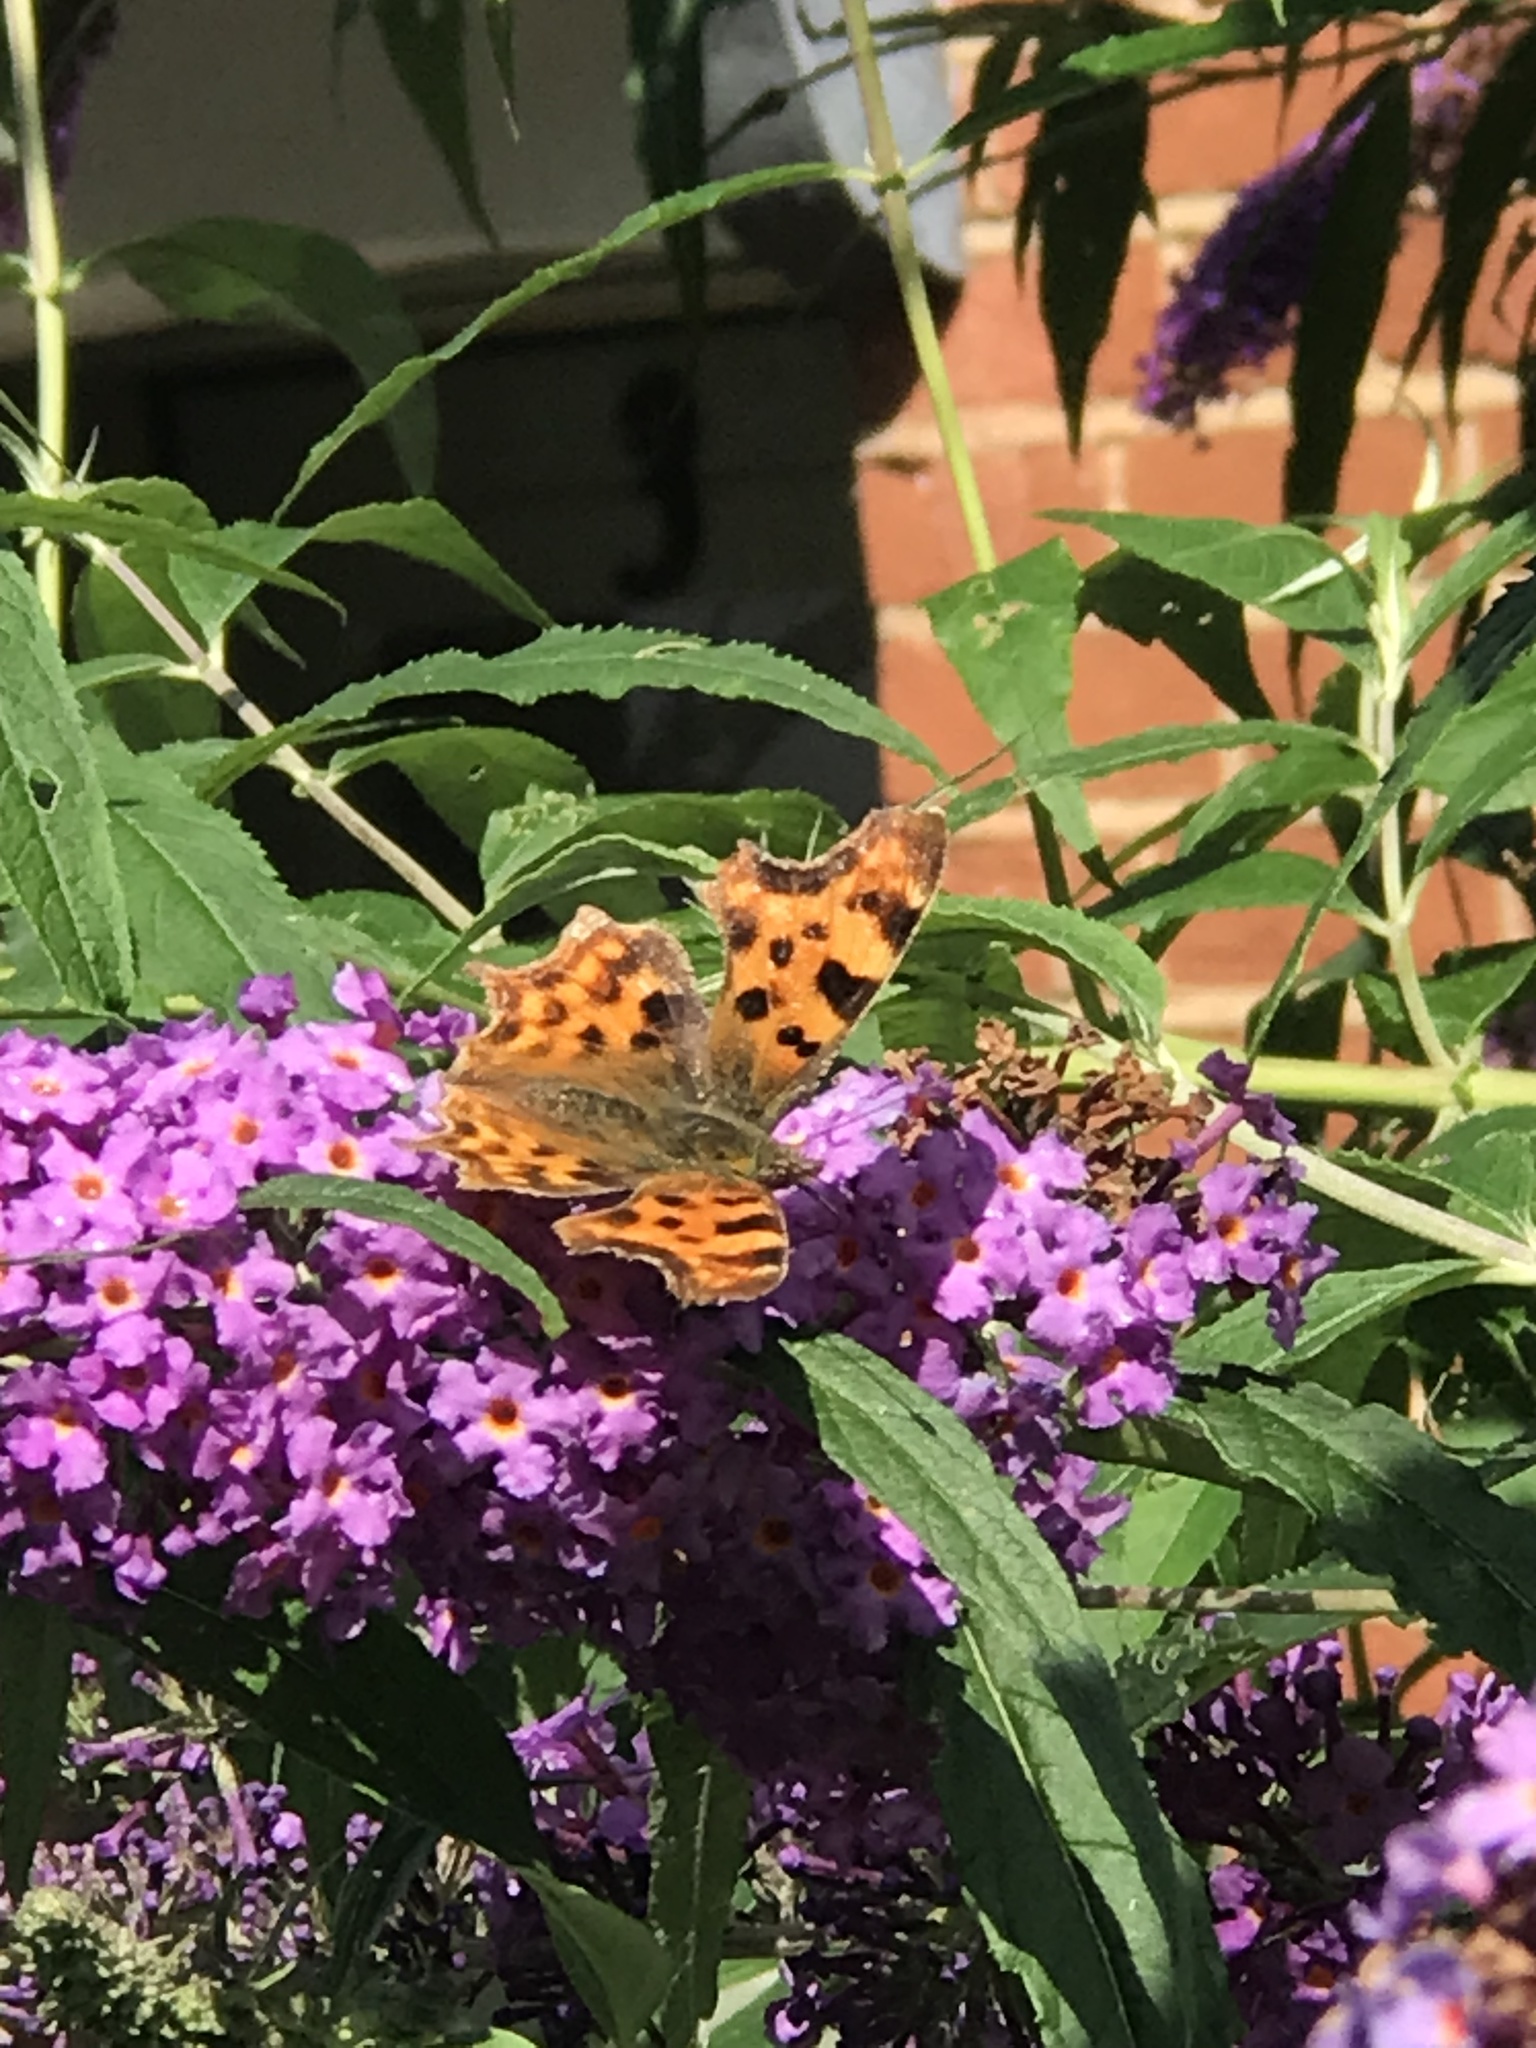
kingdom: Animalia
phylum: Arthropoda
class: Insecta
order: Lepidoptera
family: Nymphalidae
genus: Polygonia
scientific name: Polygonia c-album
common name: Comma
